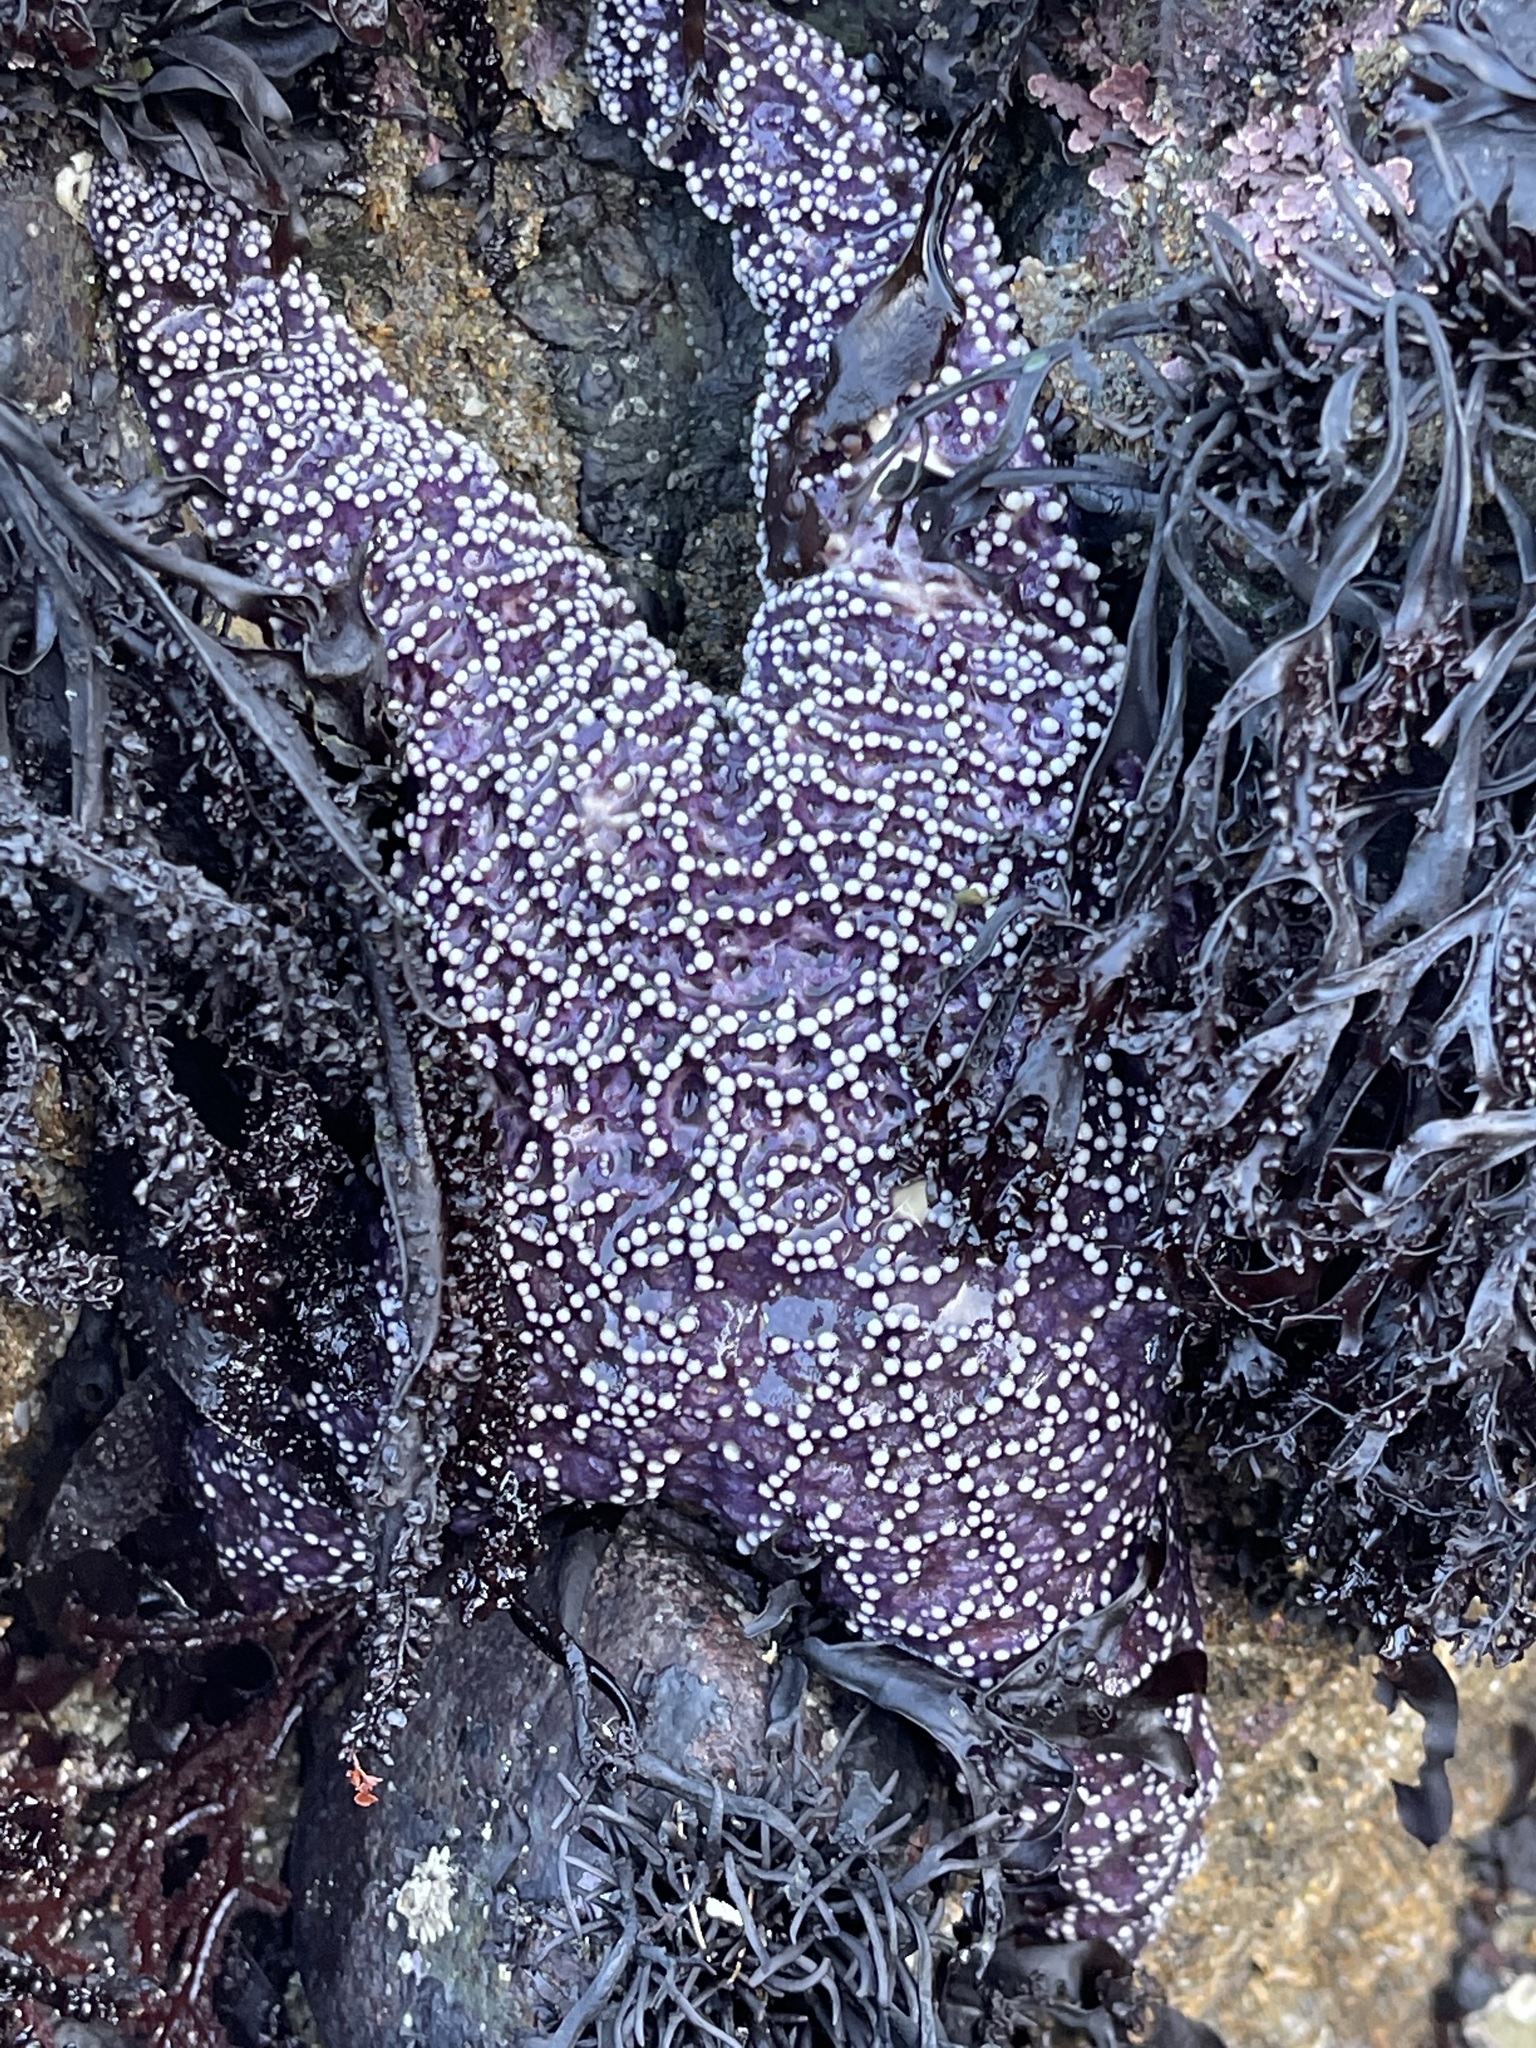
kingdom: Animalia
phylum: Echinodermata
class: Asteroidea
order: Forcipulatida
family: Asteriidae
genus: Pisaster
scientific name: Pisaster ochraceus
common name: Ochre stars
